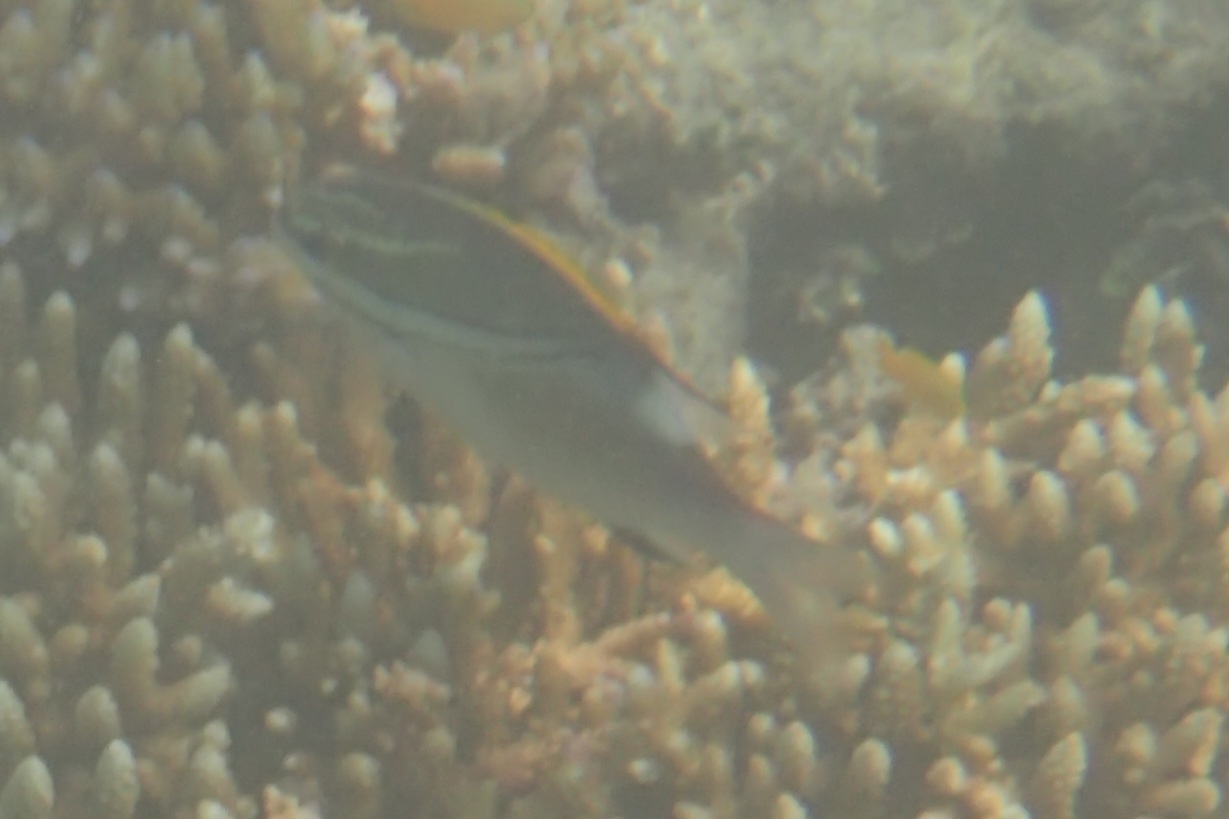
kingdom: Animalia
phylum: Chordata
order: Perciformes
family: Nemipteridae
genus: Scolopsis
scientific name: Scolopsis bilineata
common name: Two-lined monocle bream
